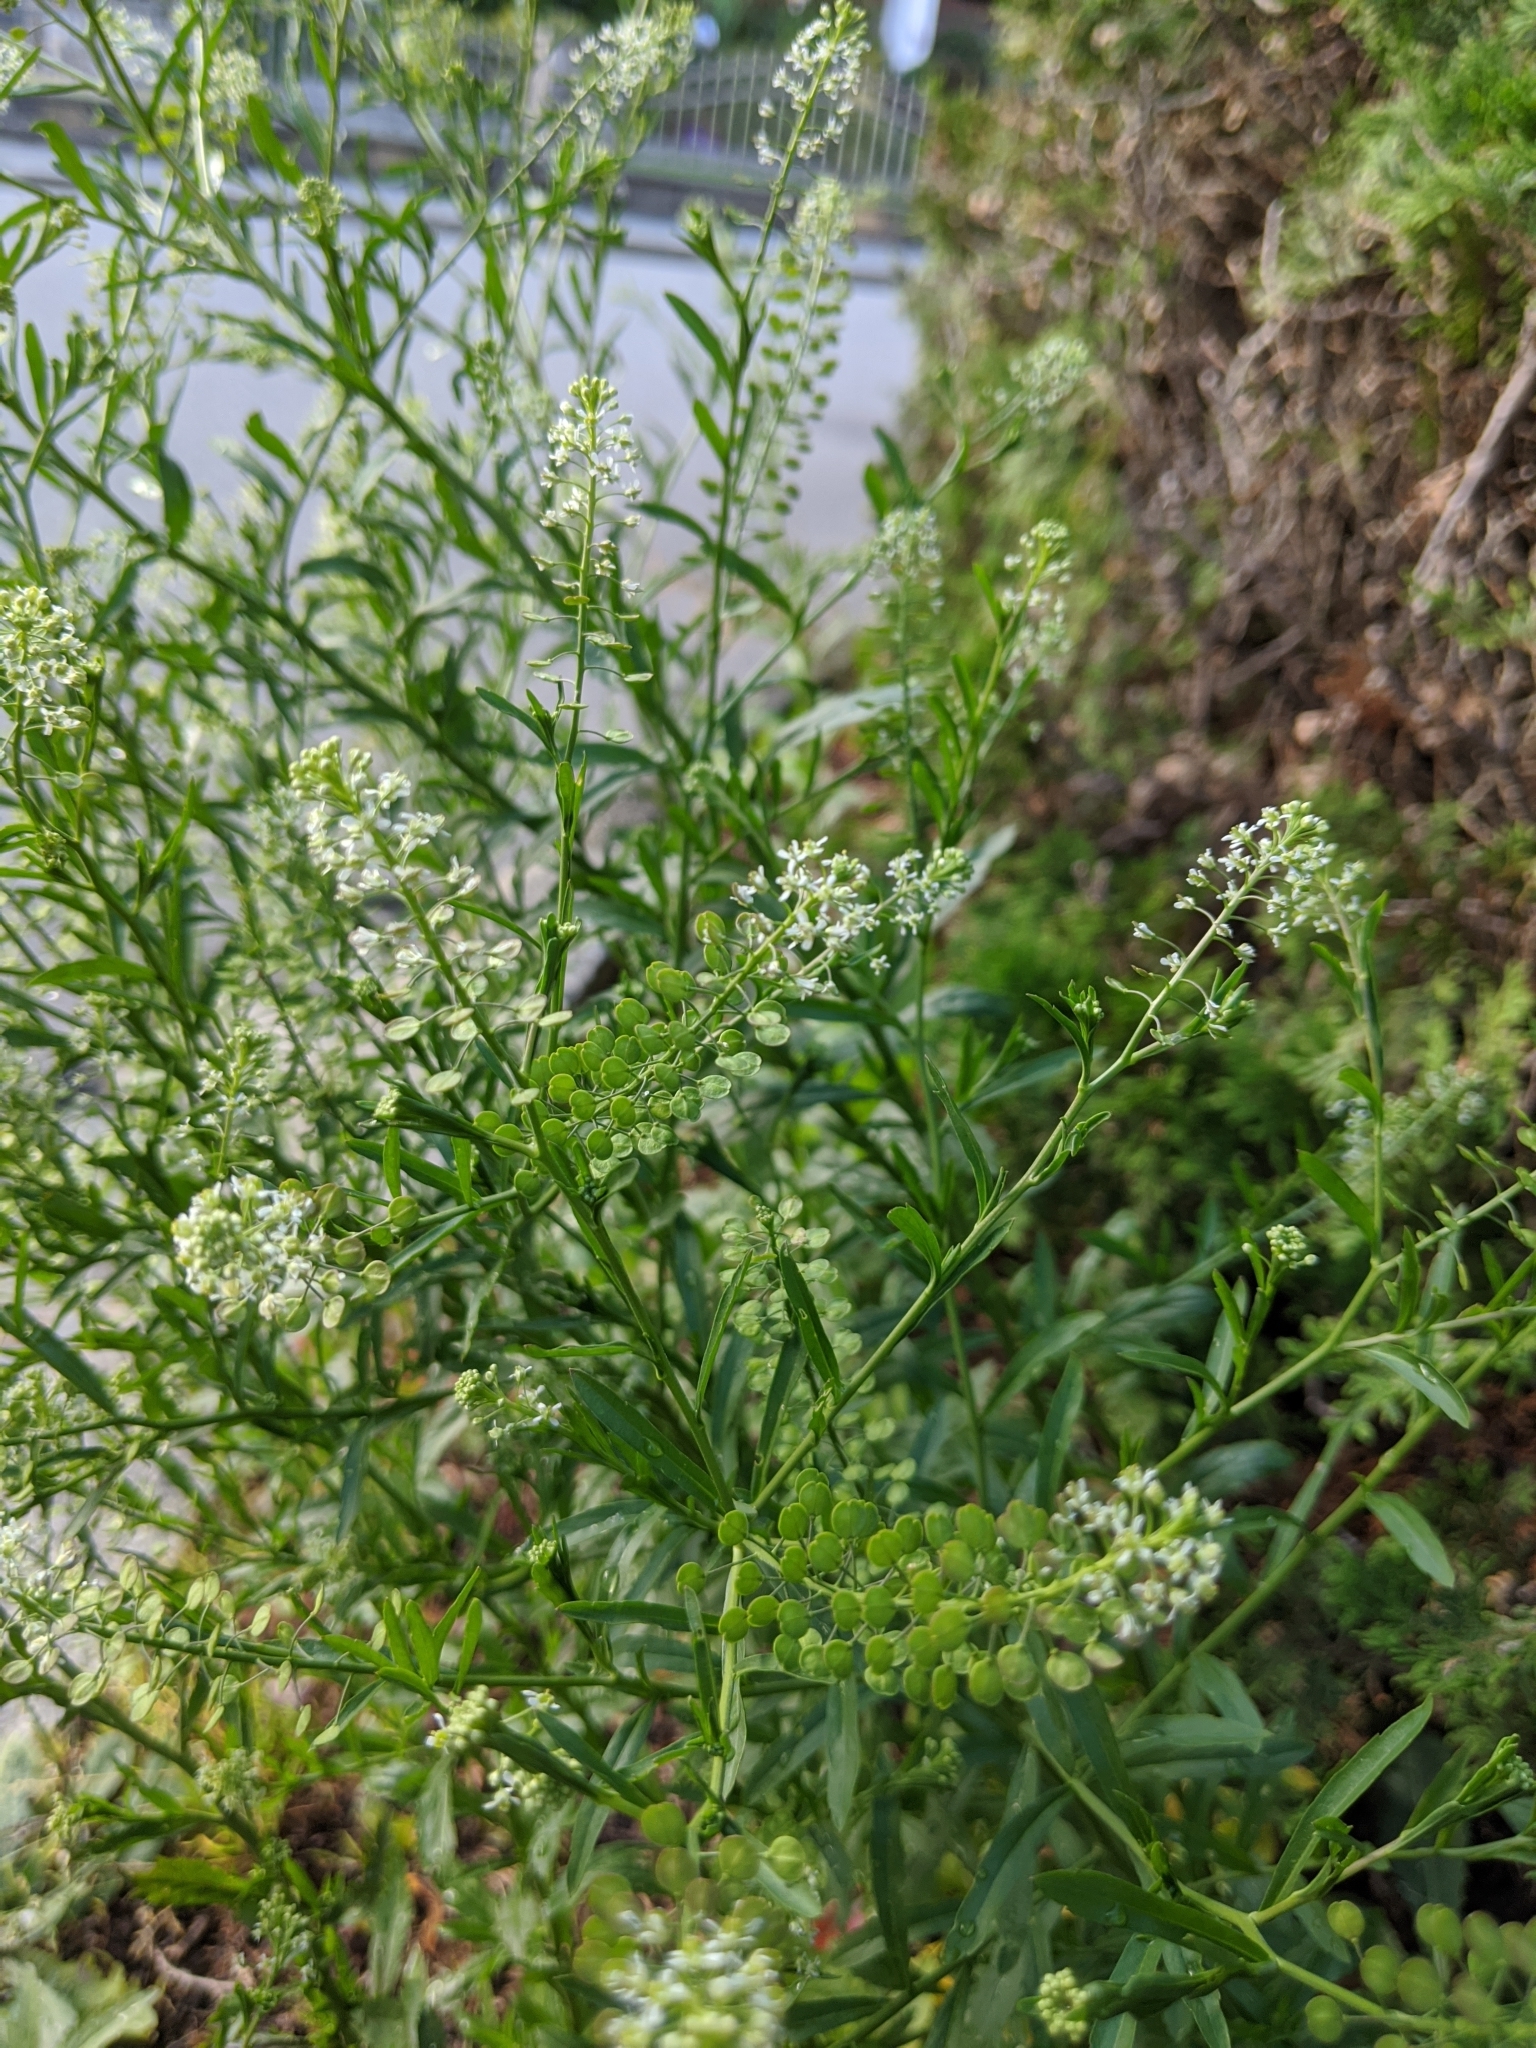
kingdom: Plantae
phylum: Tracheophyta
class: Magnoliopsida
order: Brassicales
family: Brassicaceae
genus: Lepidium
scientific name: Lepidium virginicum
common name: Least pepperwort
